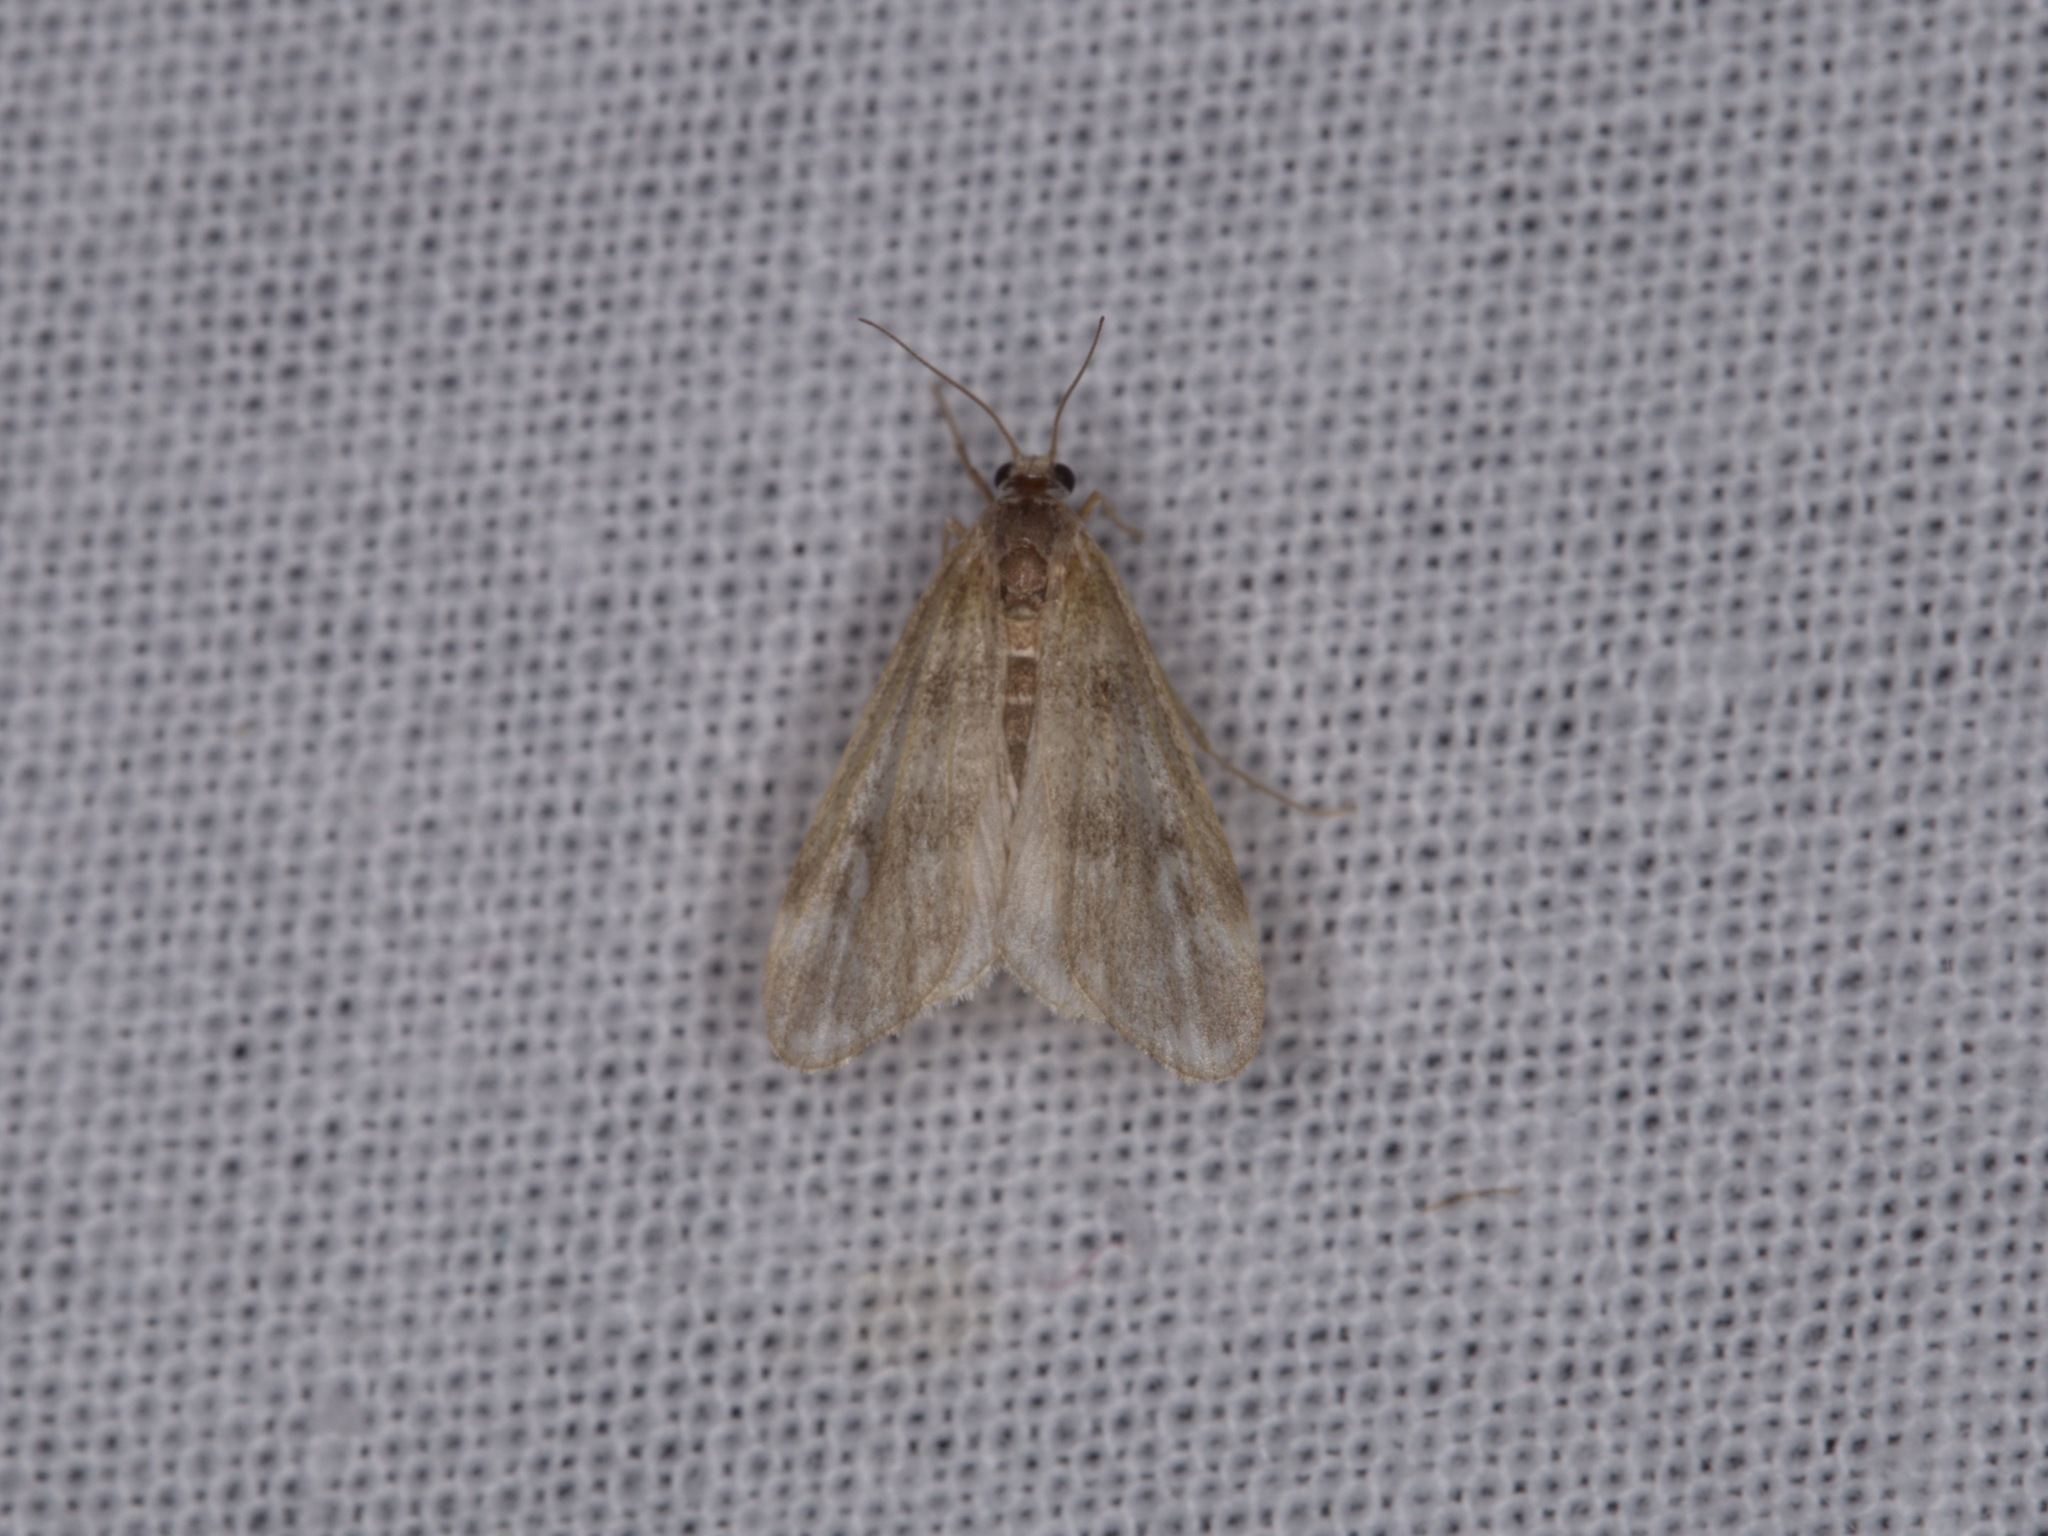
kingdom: Animalia
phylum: Arthropoda
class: Insecta
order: Lepidoptera
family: Crambidae
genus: Hygraula
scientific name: Hygraula nitens
